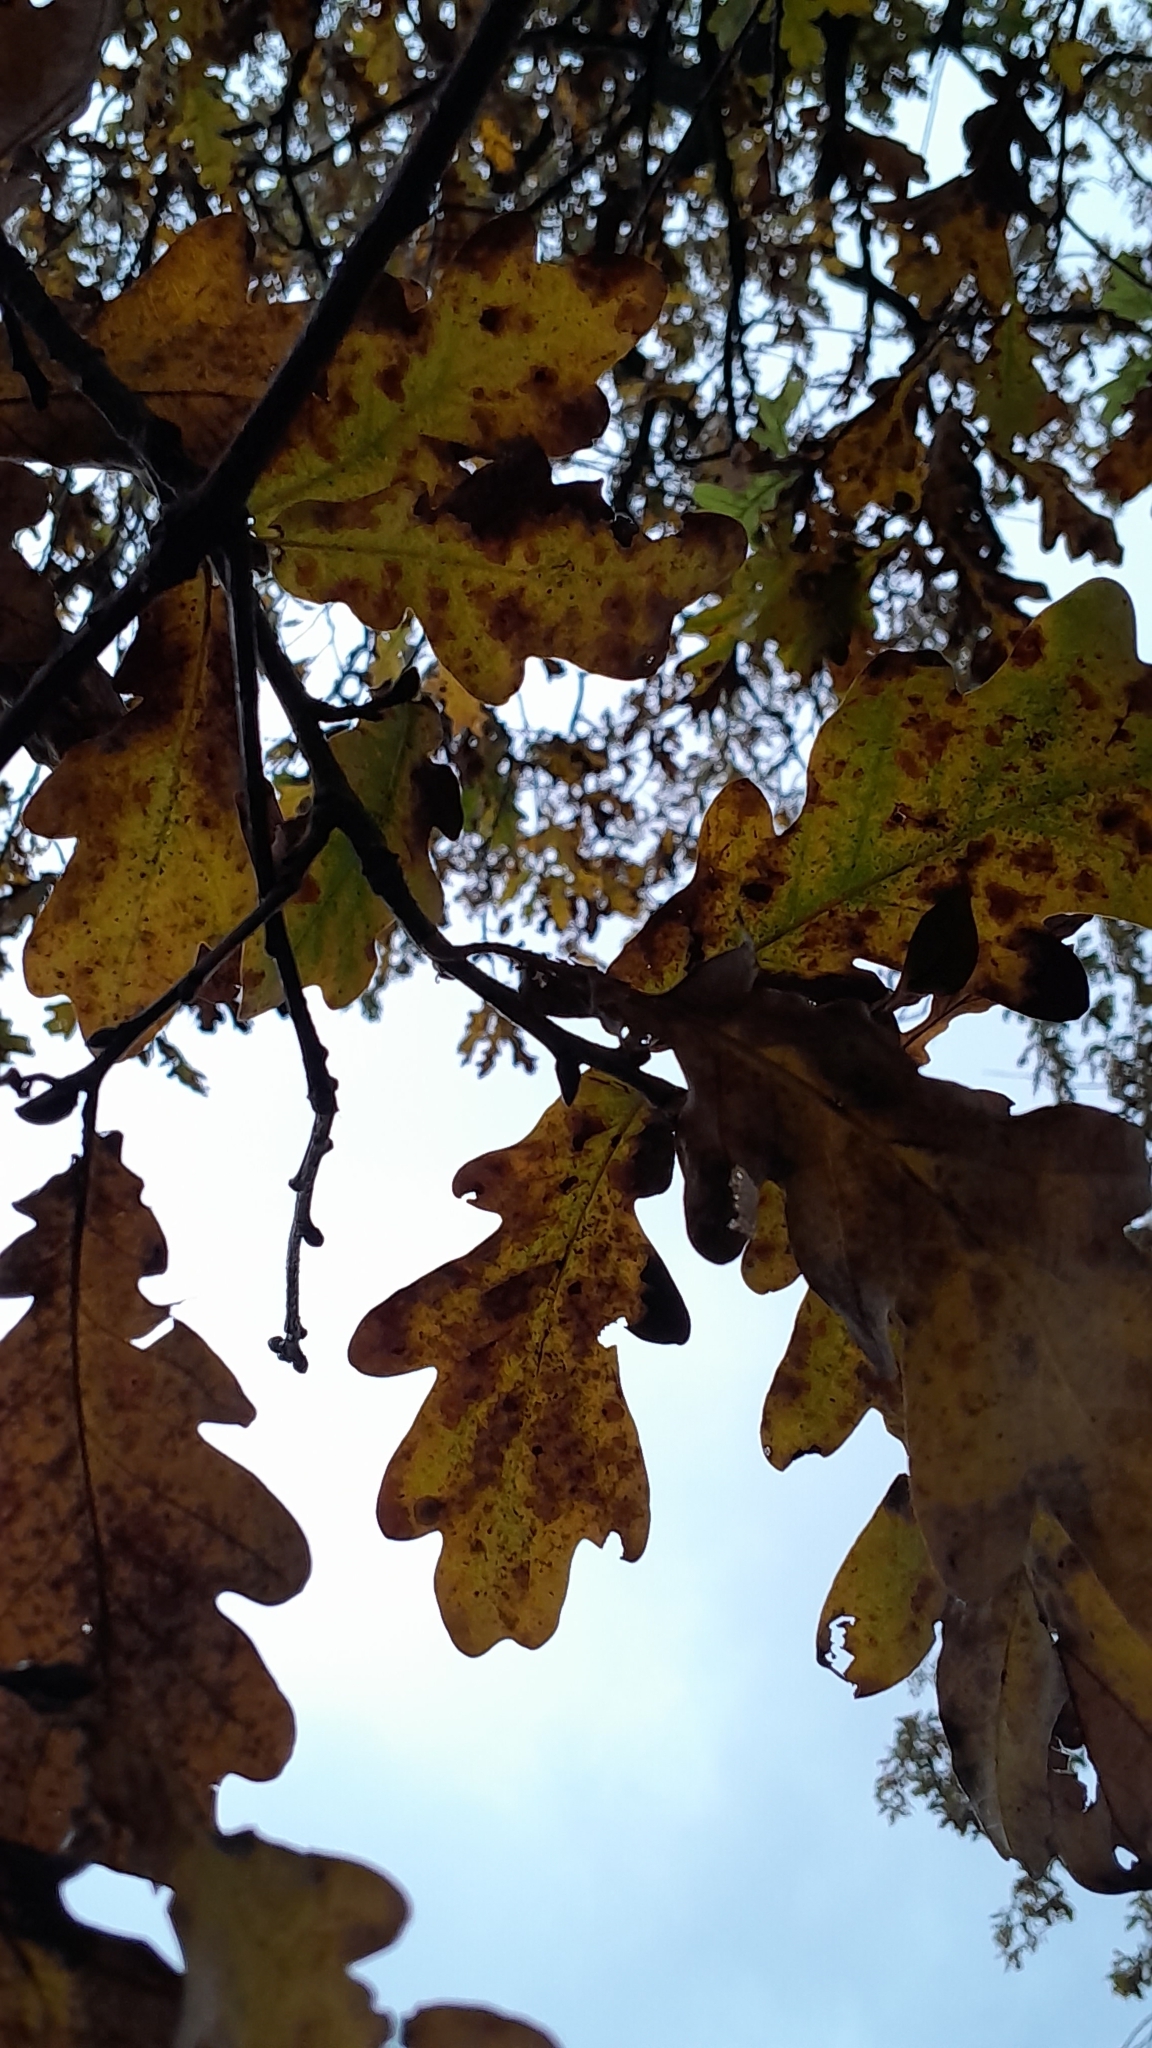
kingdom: Plantae
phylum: Tracheophyta
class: Magnoliopsida
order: Fagales
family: Fagaceae
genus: Quercus
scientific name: Quercus robur
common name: Pedunculate oak
